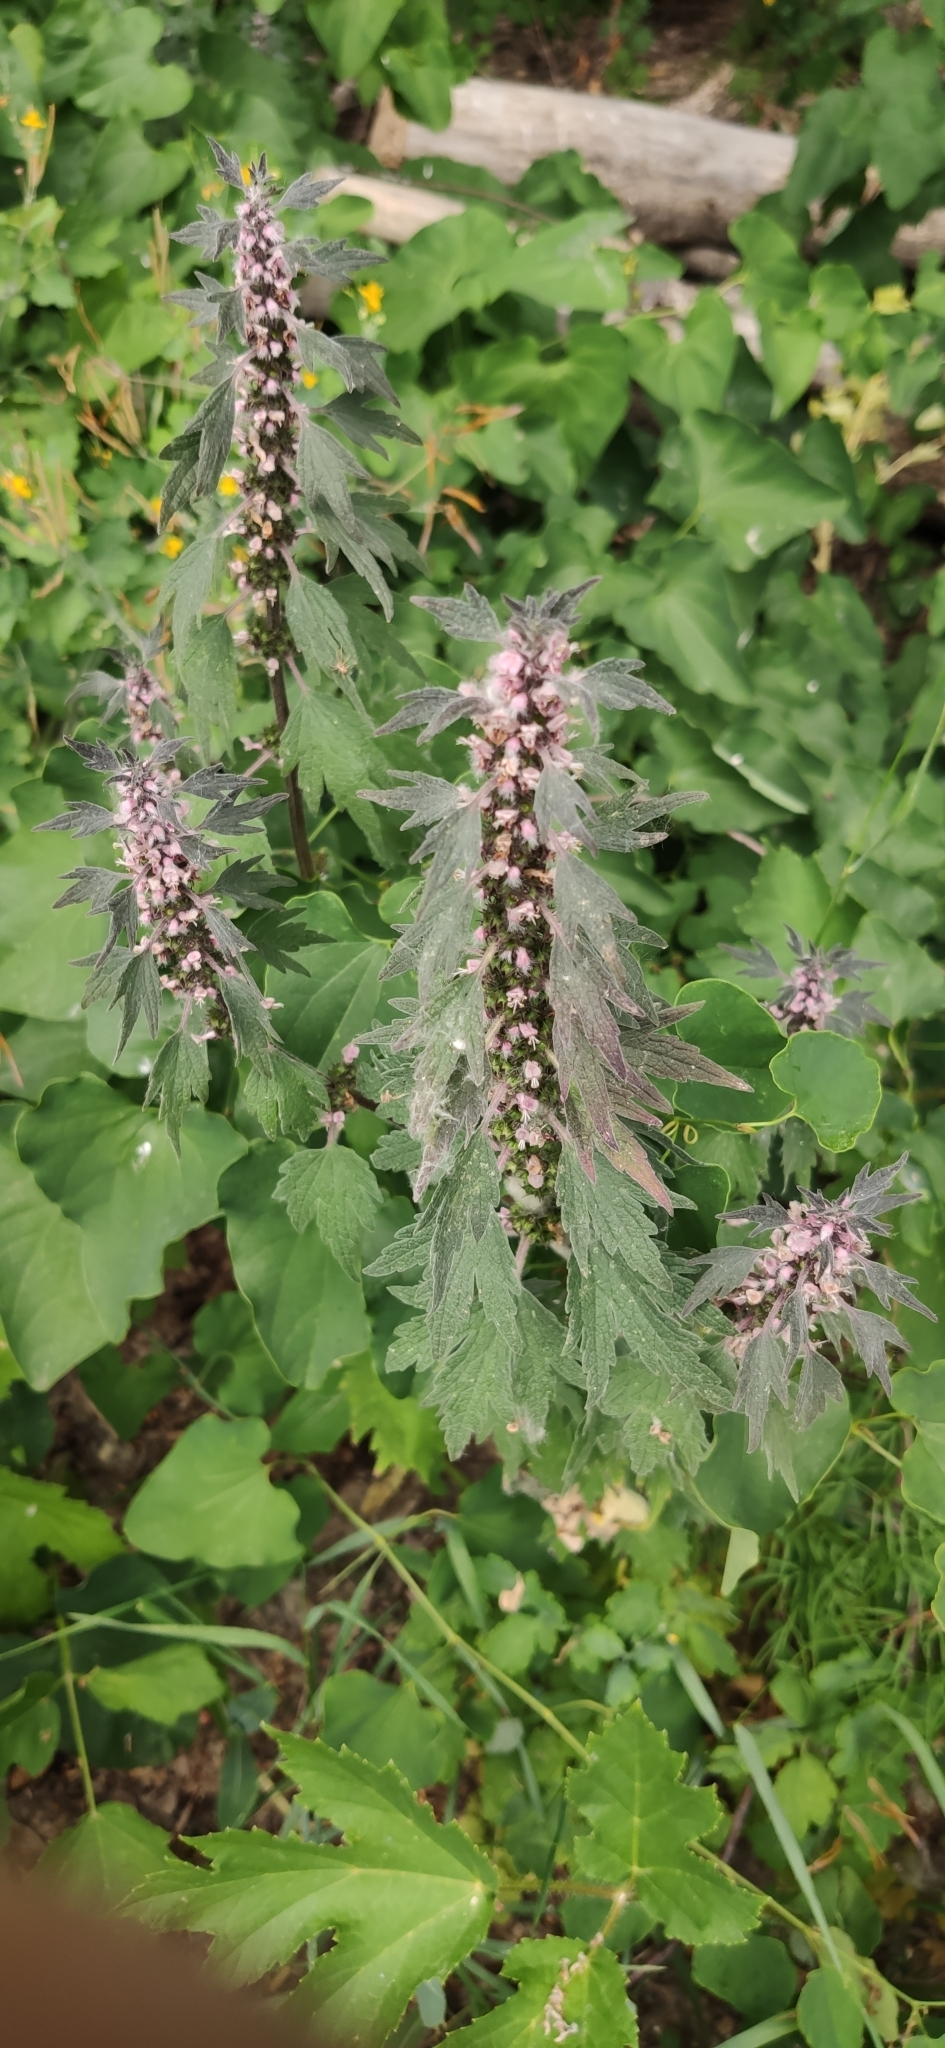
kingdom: Plantae
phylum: Tracheophyta
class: Magnoliopsida
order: Lamiales
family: Lamiaceae
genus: Leonurus
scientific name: Leonurus quinquelobatus
